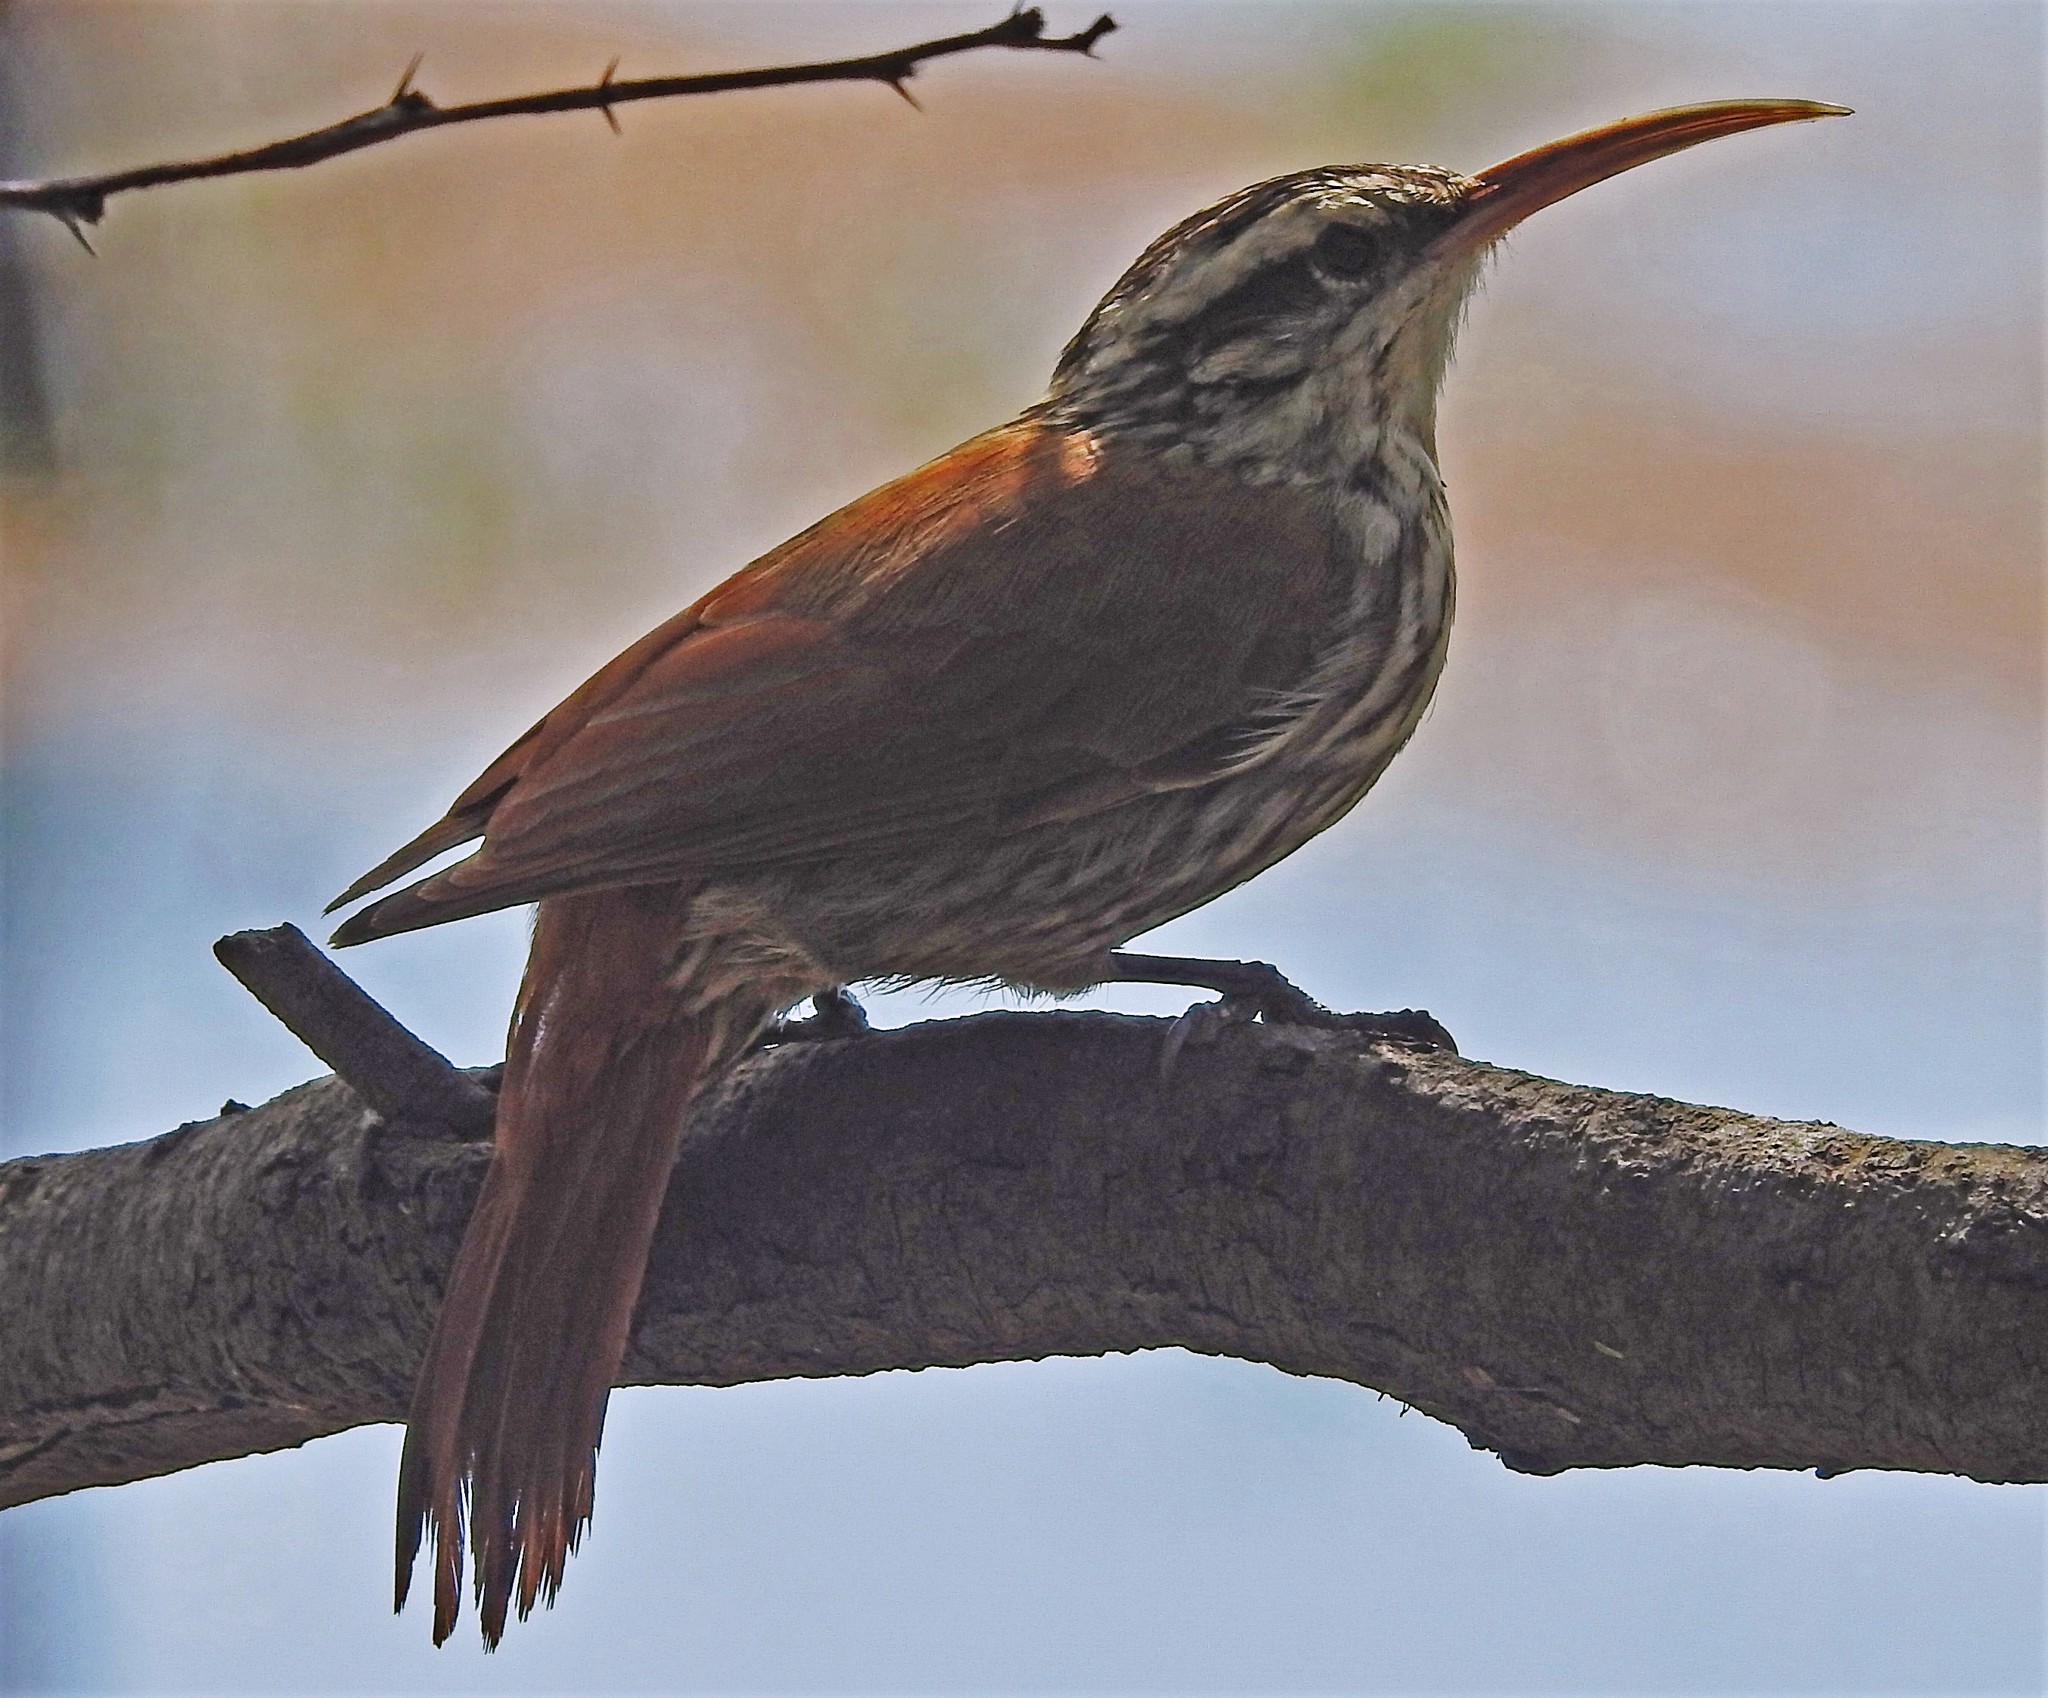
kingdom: Animalia
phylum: Chordata
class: Aves
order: Passeriformes
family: Furnariidae
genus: Lepidocolaptes
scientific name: Lepidocolaptes angustirostris
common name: Narrow-billed woodcreeper
